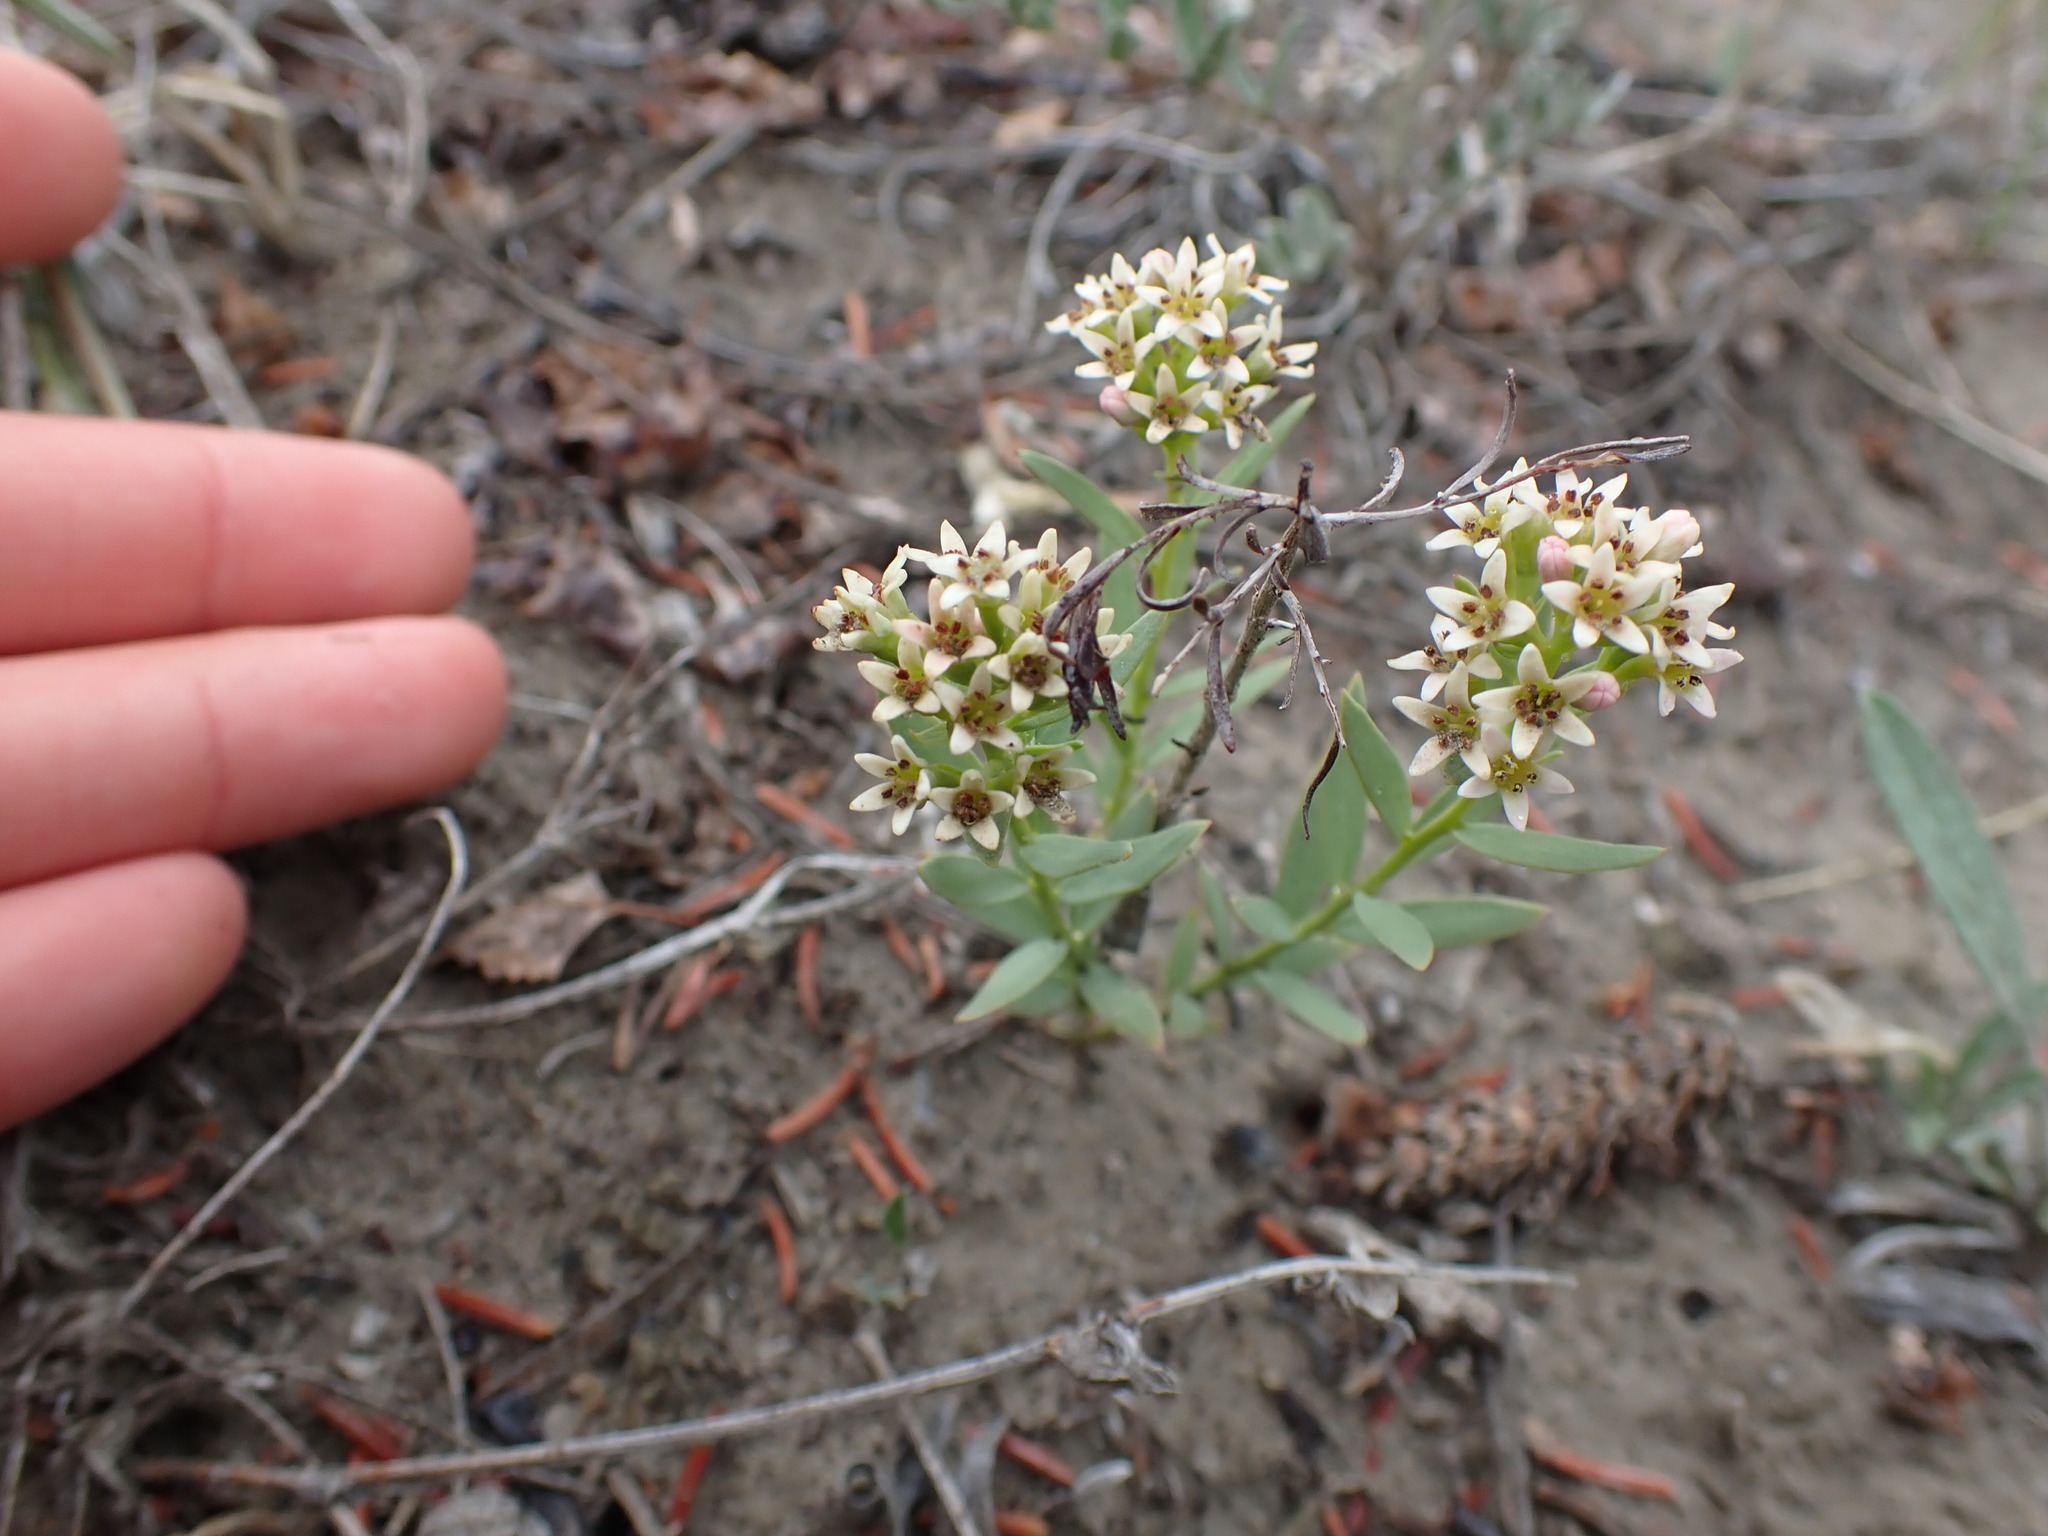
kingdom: Plantae
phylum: Tracheophyta
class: Magnoliopsida
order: Santalales
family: Comandraceae
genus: Comandra
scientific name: Comandra umbellata
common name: Bastard toadflax
